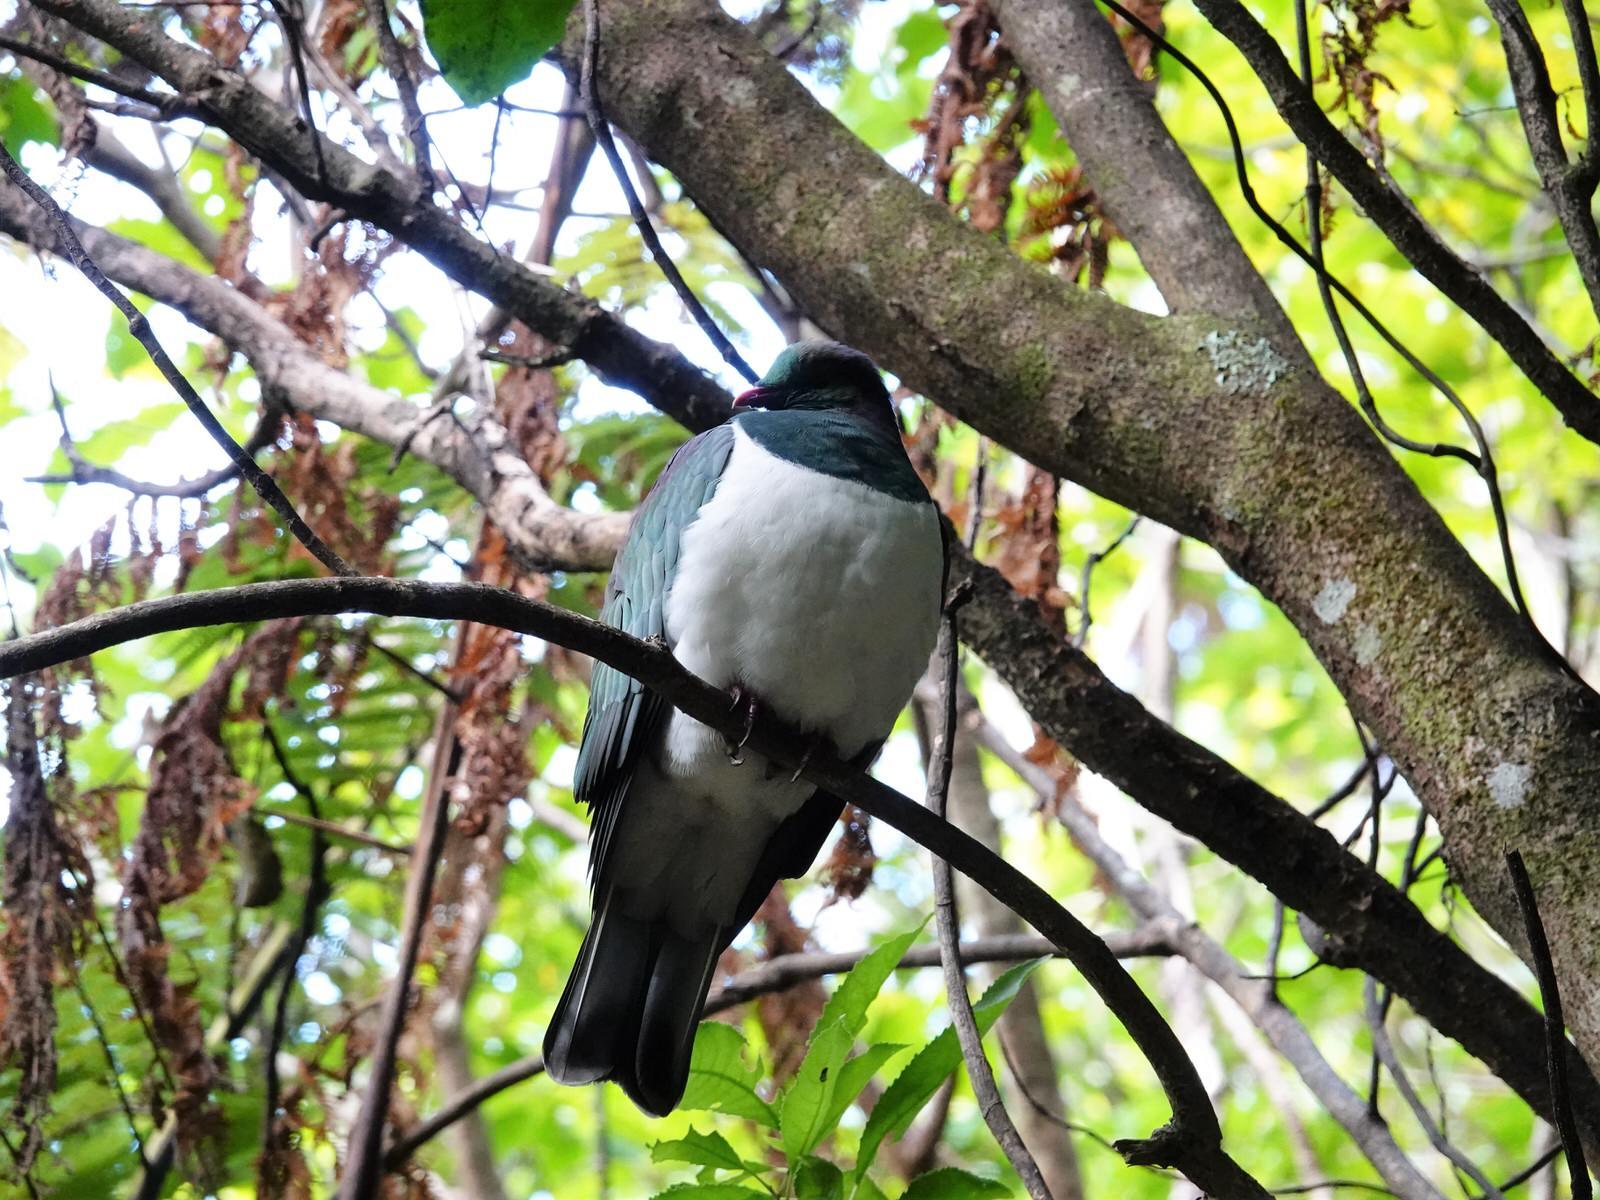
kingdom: Animalia
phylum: Chordata
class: Aves
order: Columbiformes
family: Columbidae
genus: Hemiphaga
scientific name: Hemiphaga novaeseelandiae
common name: New zealand pigeon
